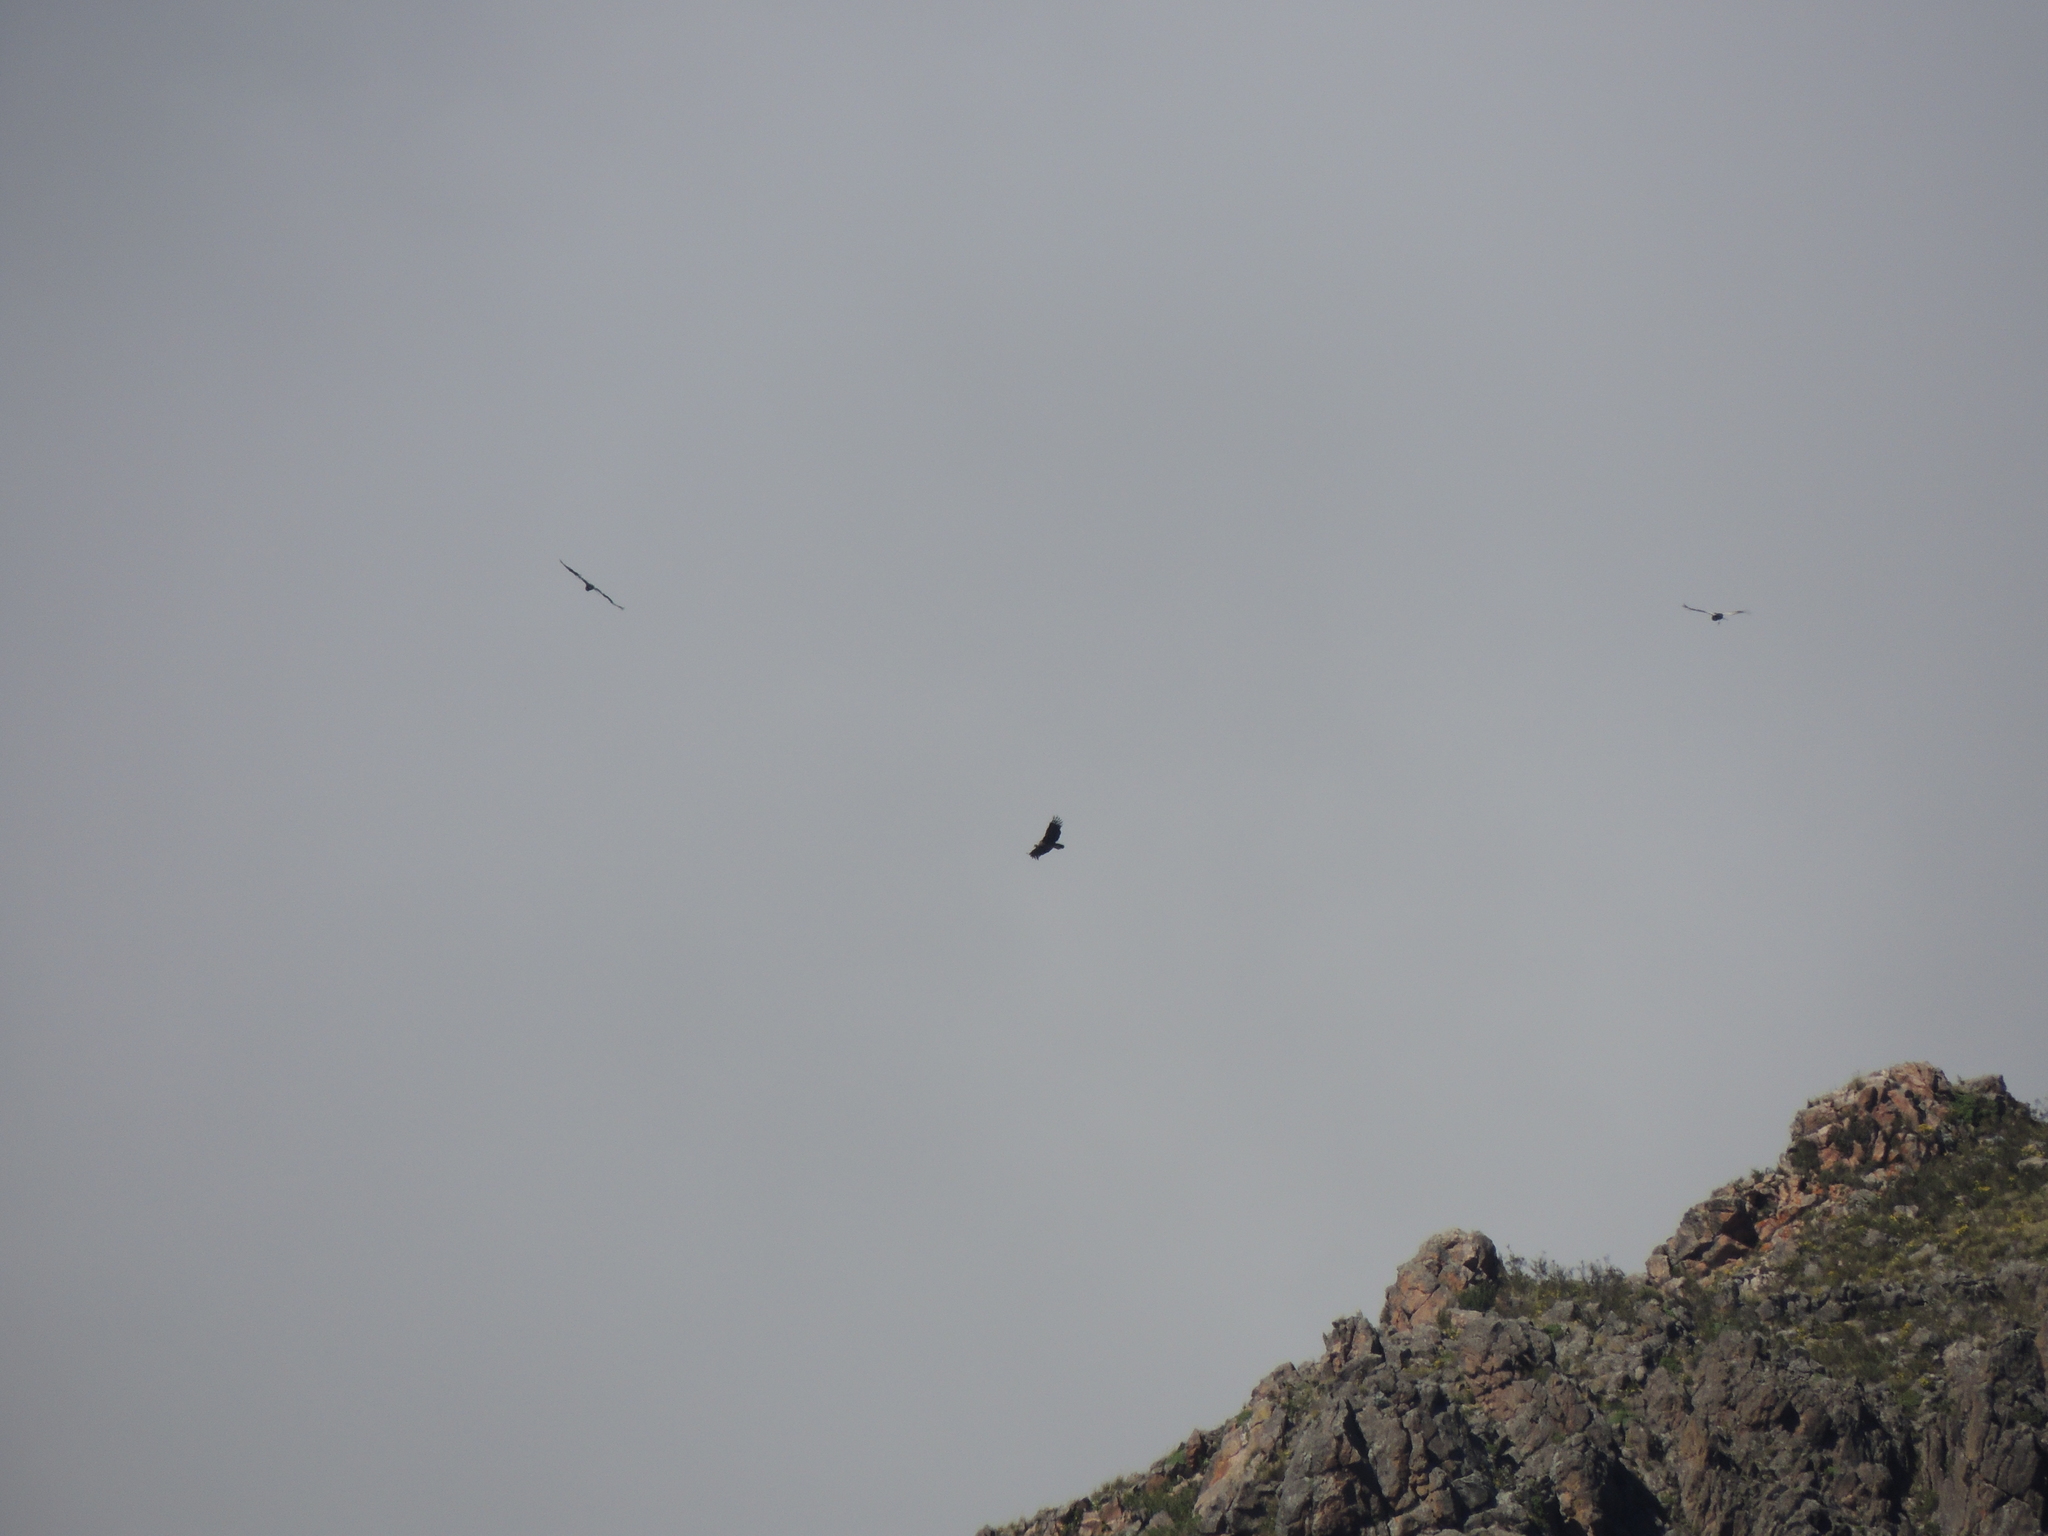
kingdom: Animalia
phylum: Chordata
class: Aves
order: Accipitriformes
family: Cathartidae
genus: Vultur
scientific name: Vultur gryphus
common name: Andean condor
